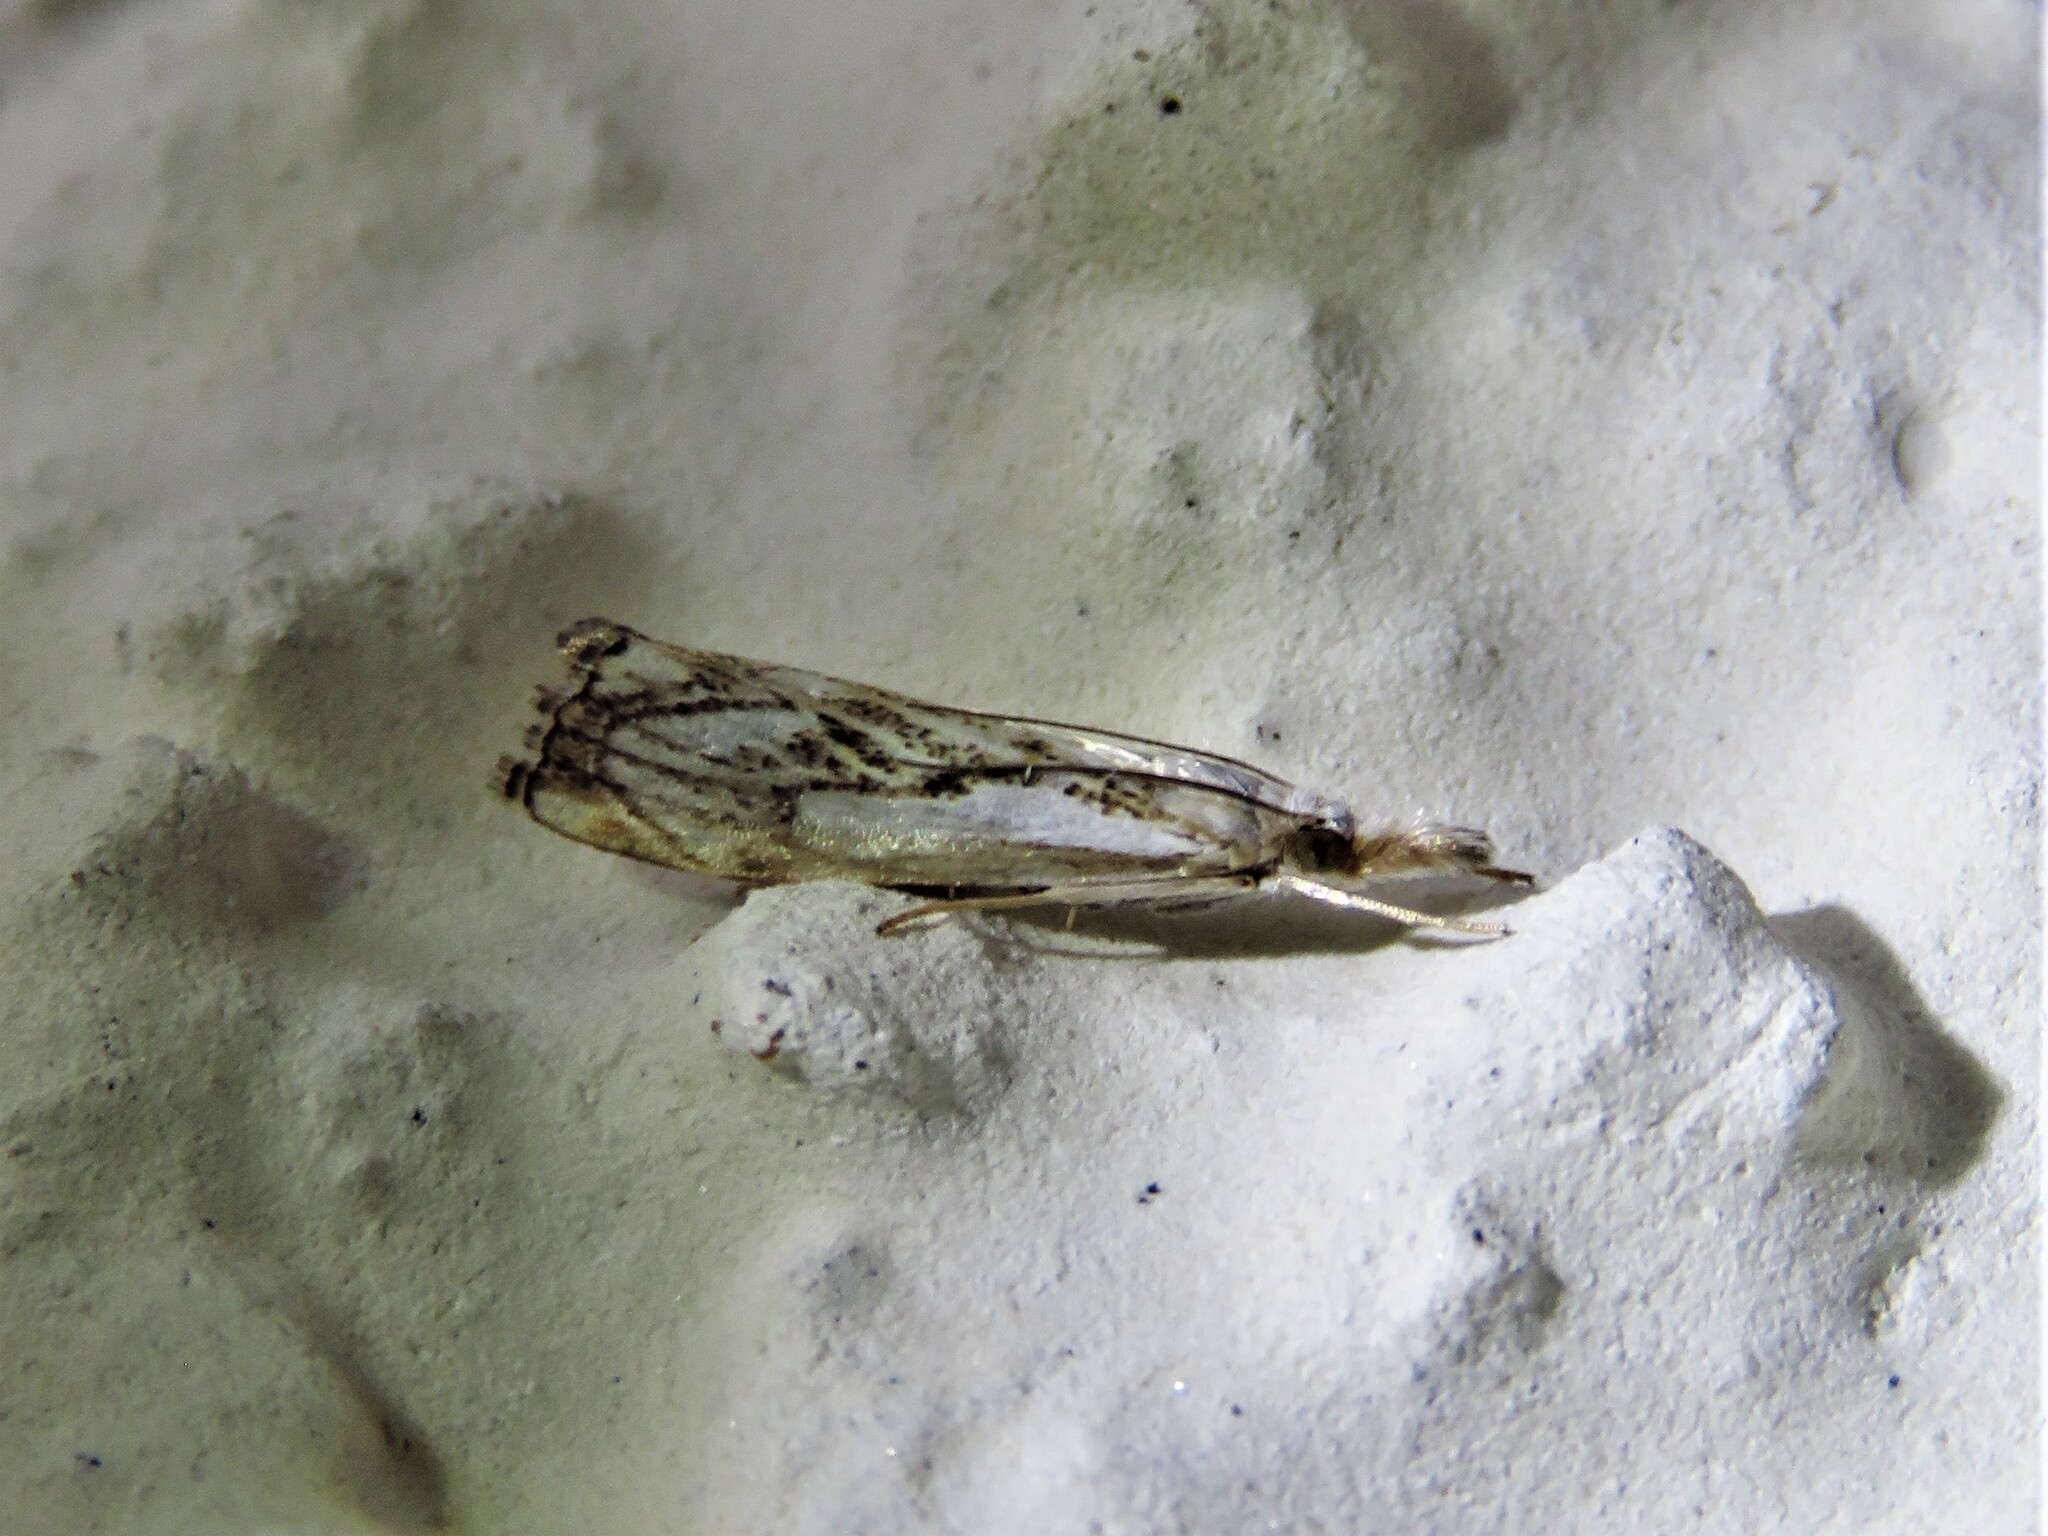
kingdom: Animalia
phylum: Arthropoda
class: Insecta
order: Lepidoptera
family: Crambidae
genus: Catoptria
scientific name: Catoptria falsella
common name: Chequered grass-veneer
